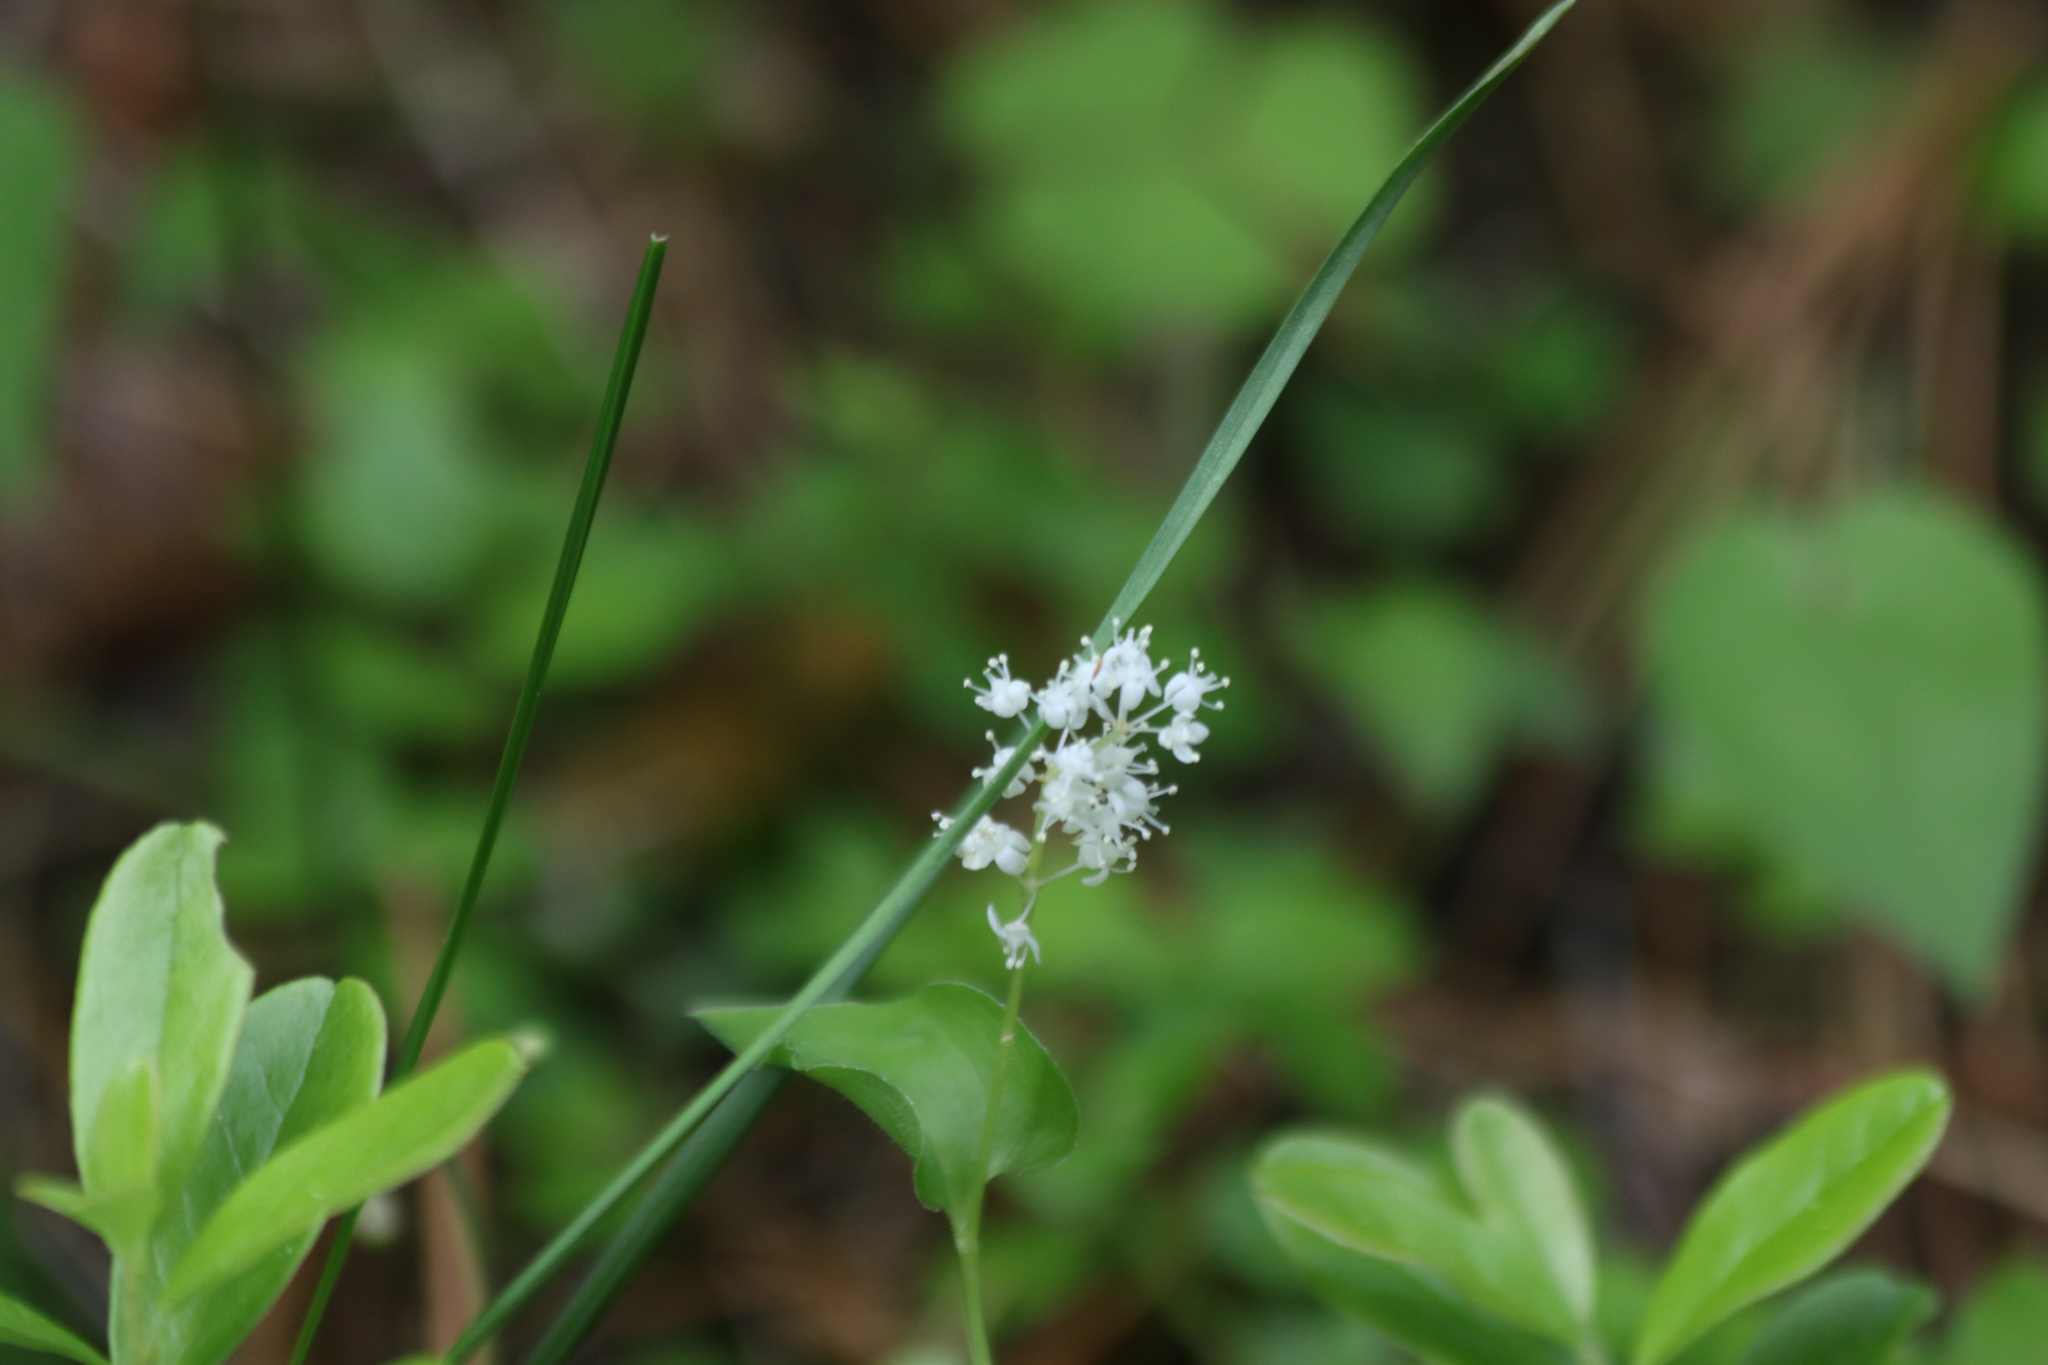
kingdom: Plantae
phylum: Tracheophyta
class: Liliopsida
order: Asparagales
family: Asparagaceae
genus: Maianthemum
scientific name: Maianthemum bifolium
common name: May lily
